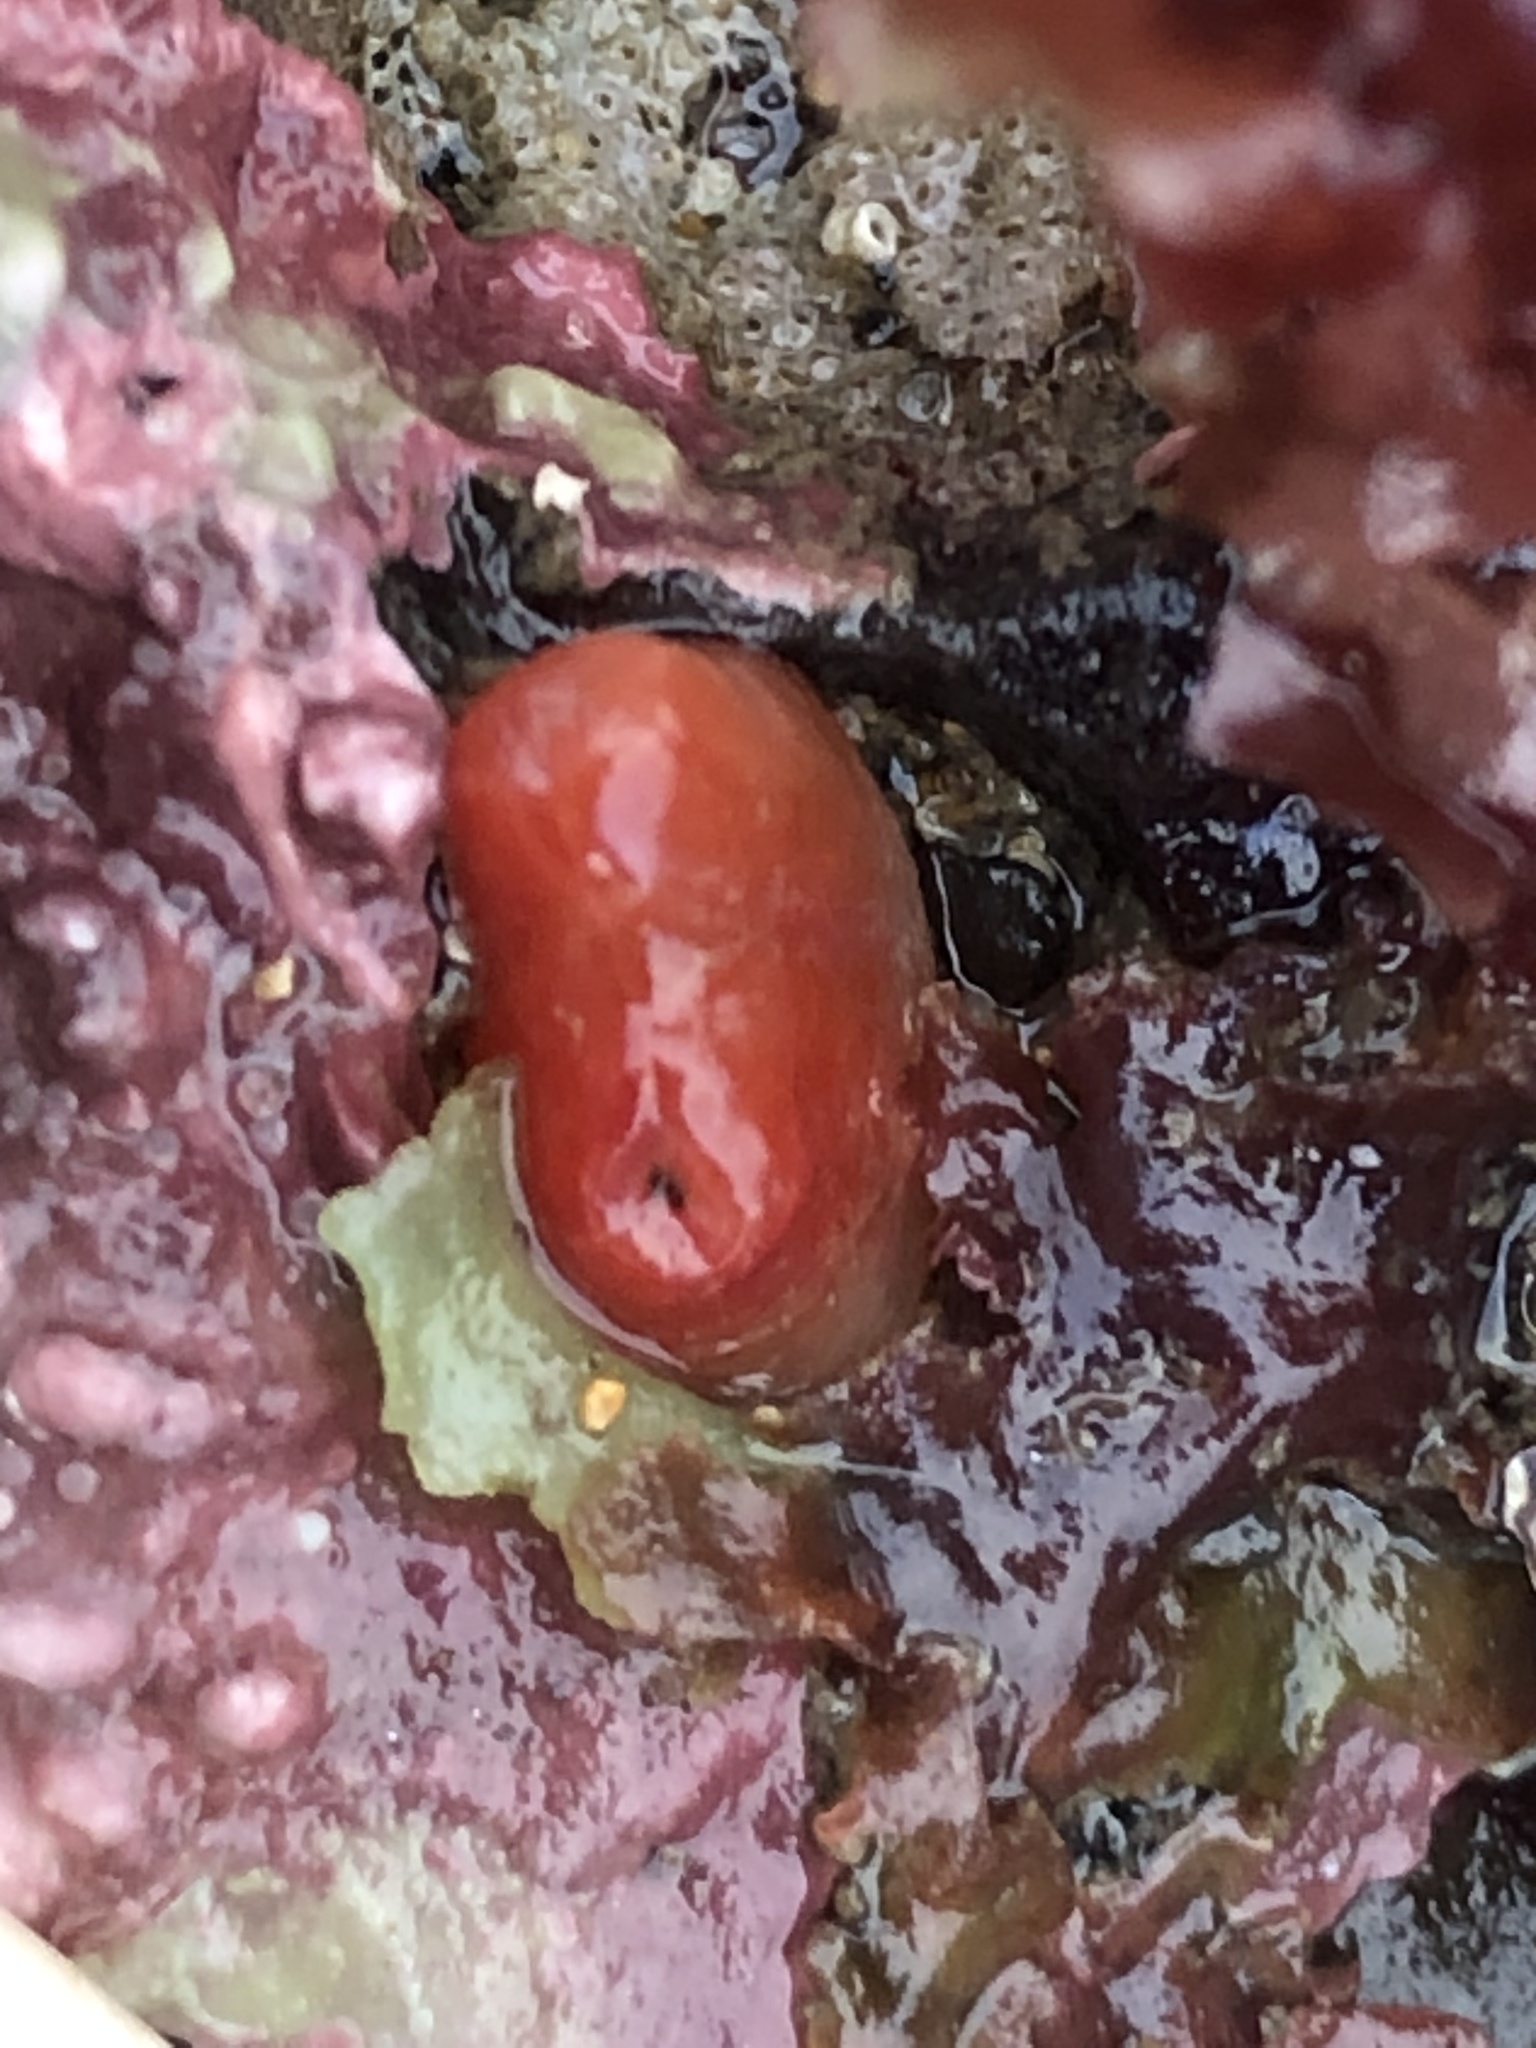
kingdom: Animalia
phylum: Mollusca
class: Bivalvia
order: Adapedonta
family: Hiatellidae
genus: Hiatella
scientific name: Hiatella arctica
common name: Arctic hiatella
